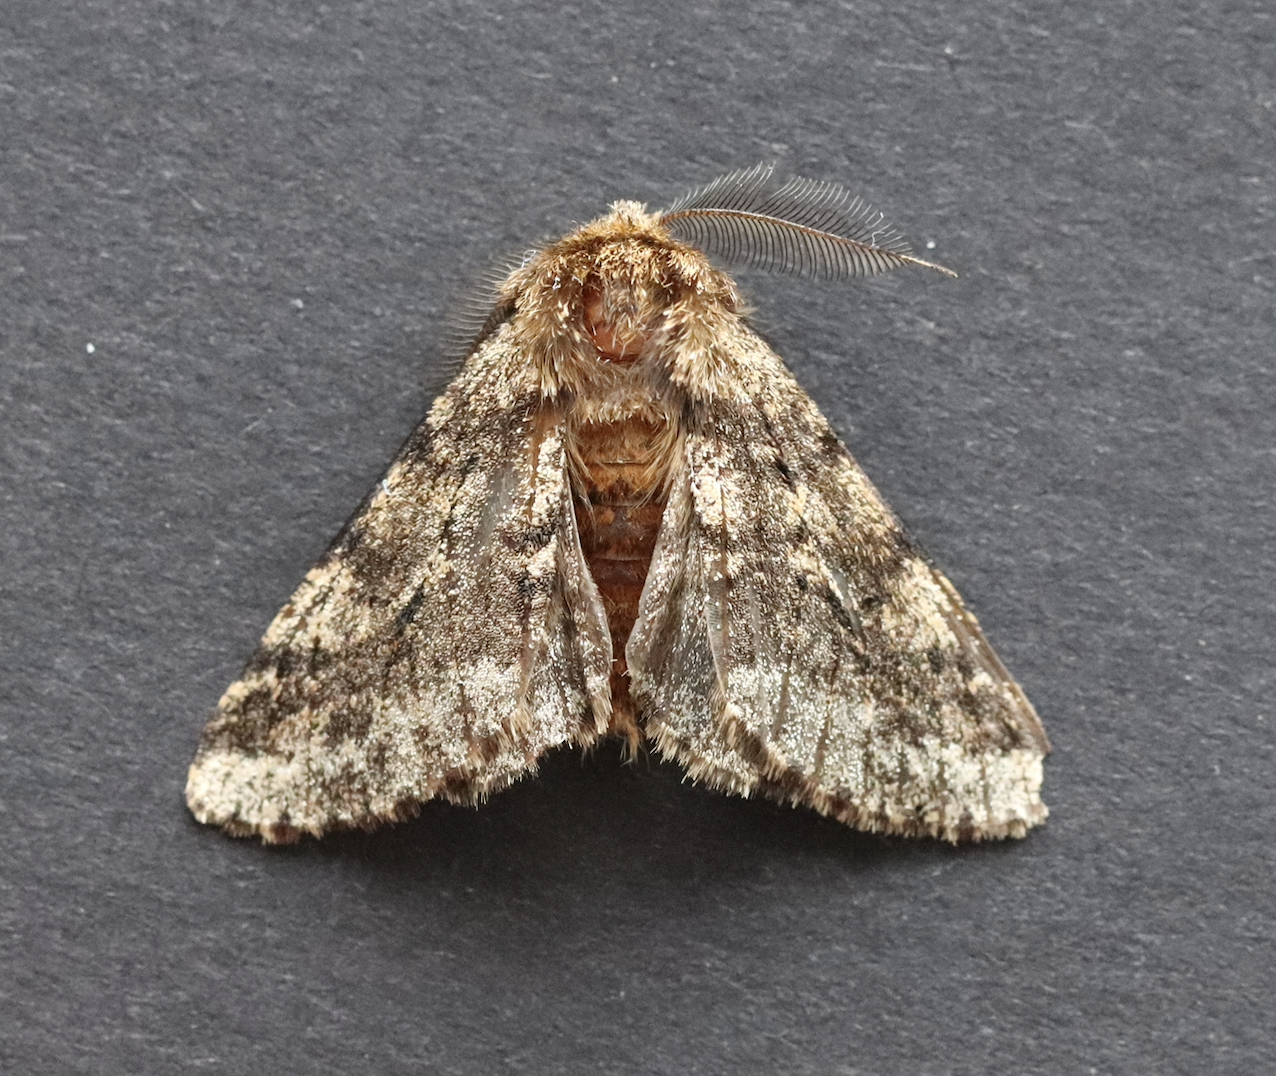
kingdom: Animalia
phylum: Arthropoda
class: Insecta
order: Lepidoptera
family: Geometridae
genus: Lycia
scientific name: Lycia hirtaria
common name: Brindled beauty
